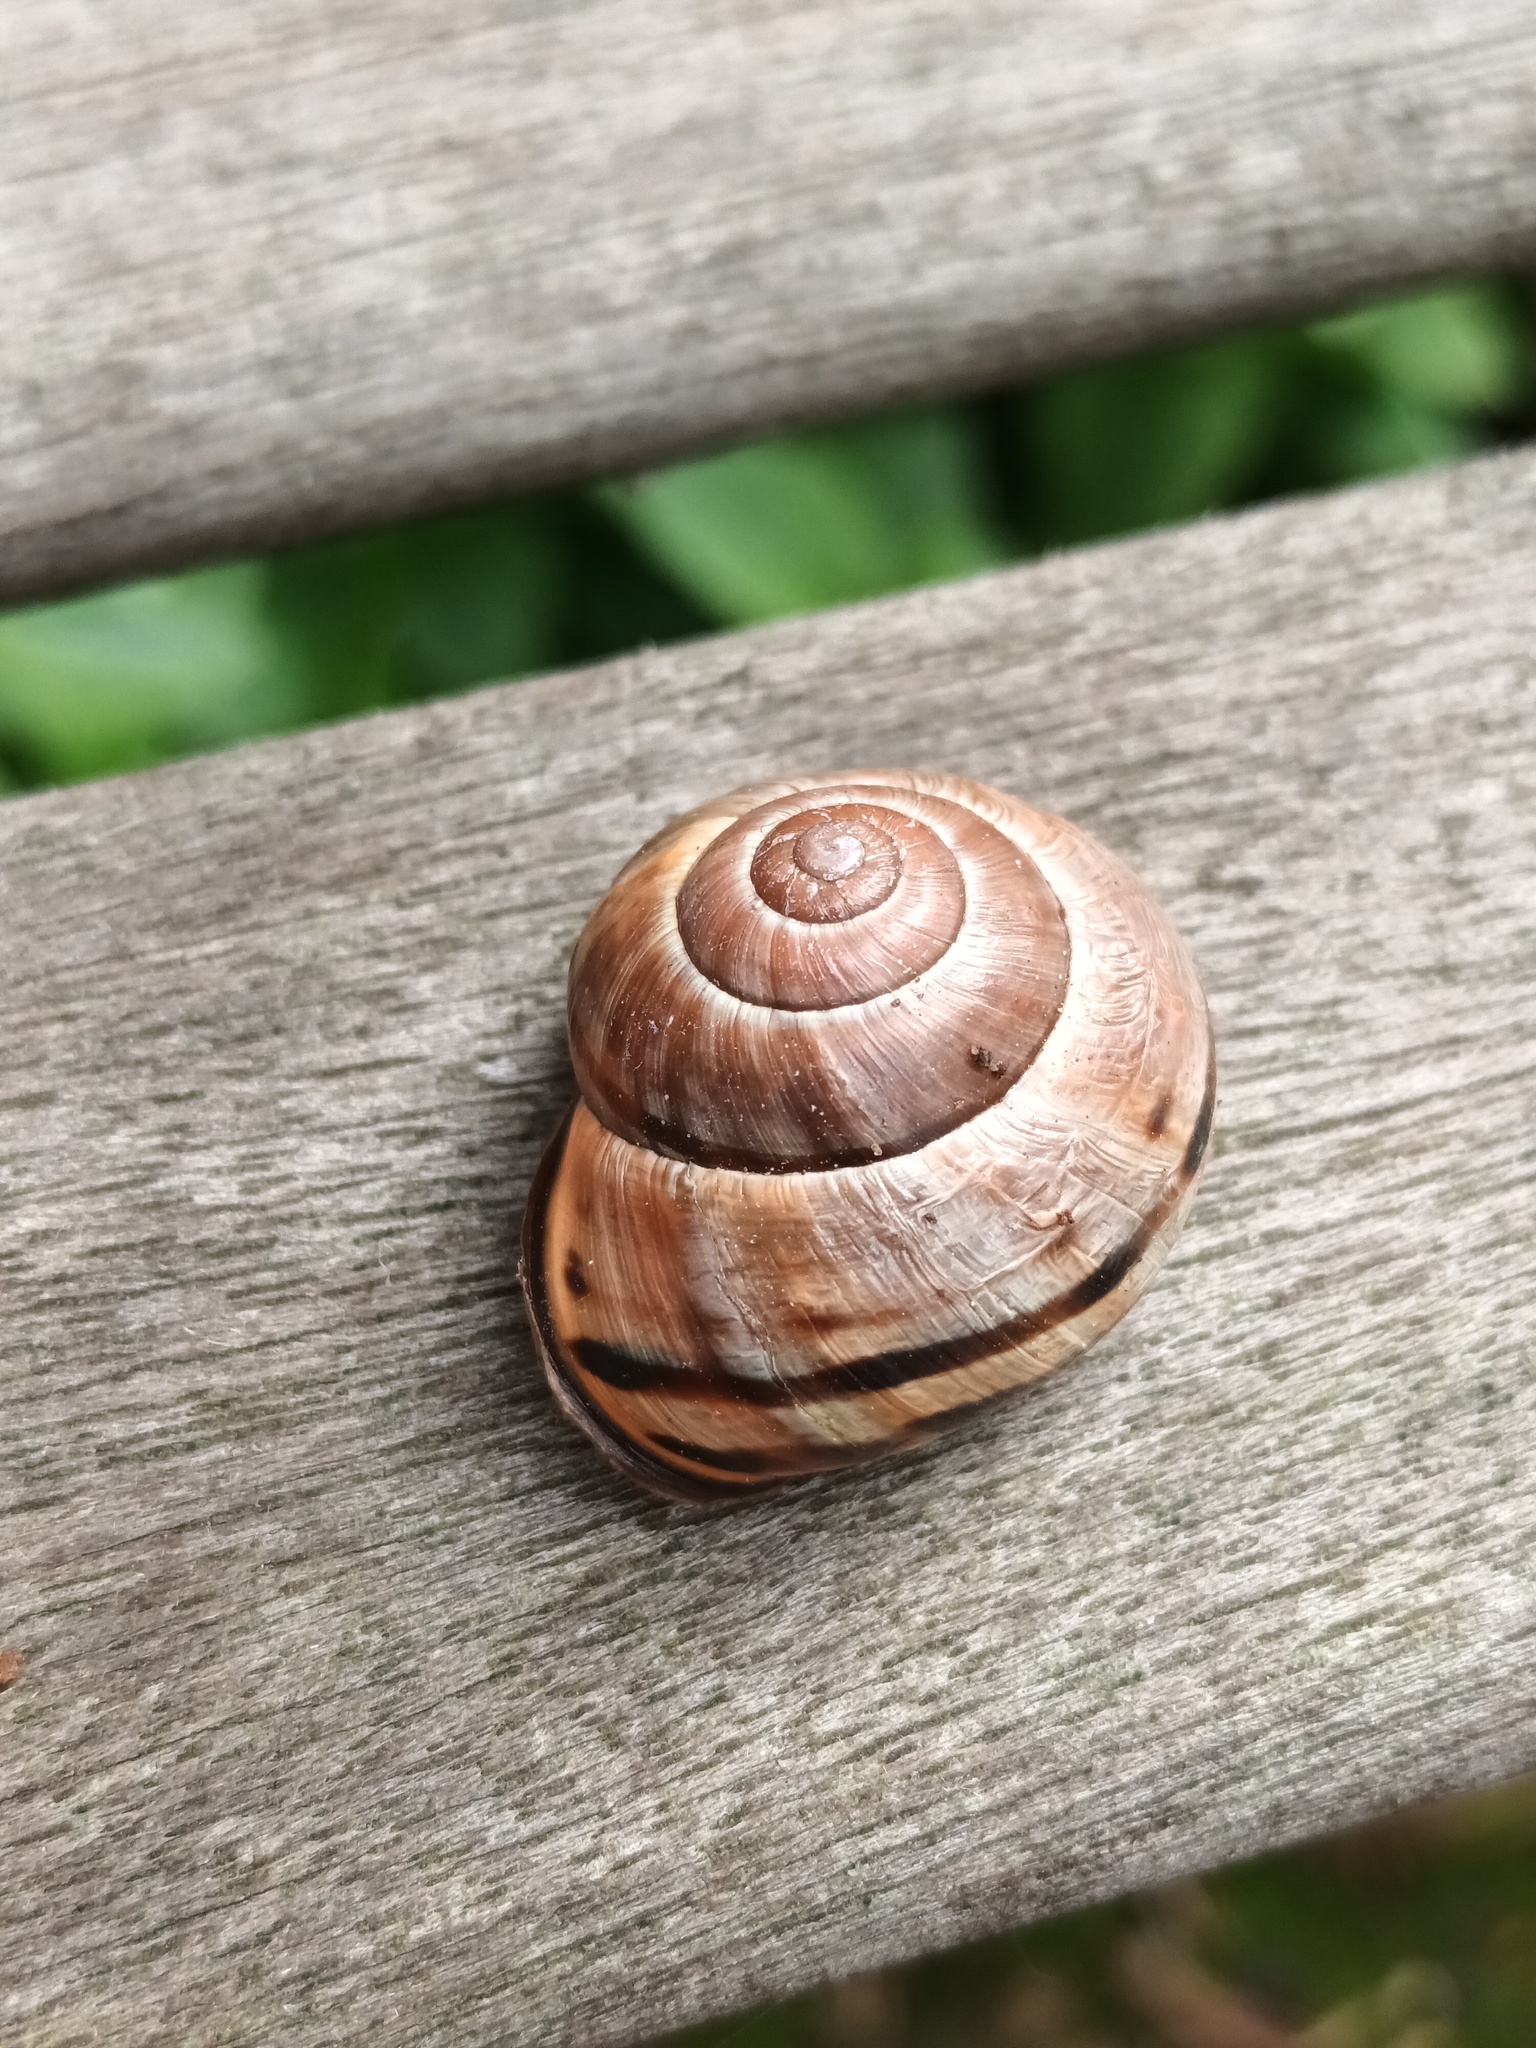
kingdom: Animalia
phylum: Mollusca
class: Gastropoda
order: Stylommatophora
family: Helicidae
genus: Cepaea
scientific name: Cepaea nemoralis
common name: Grovesnail
